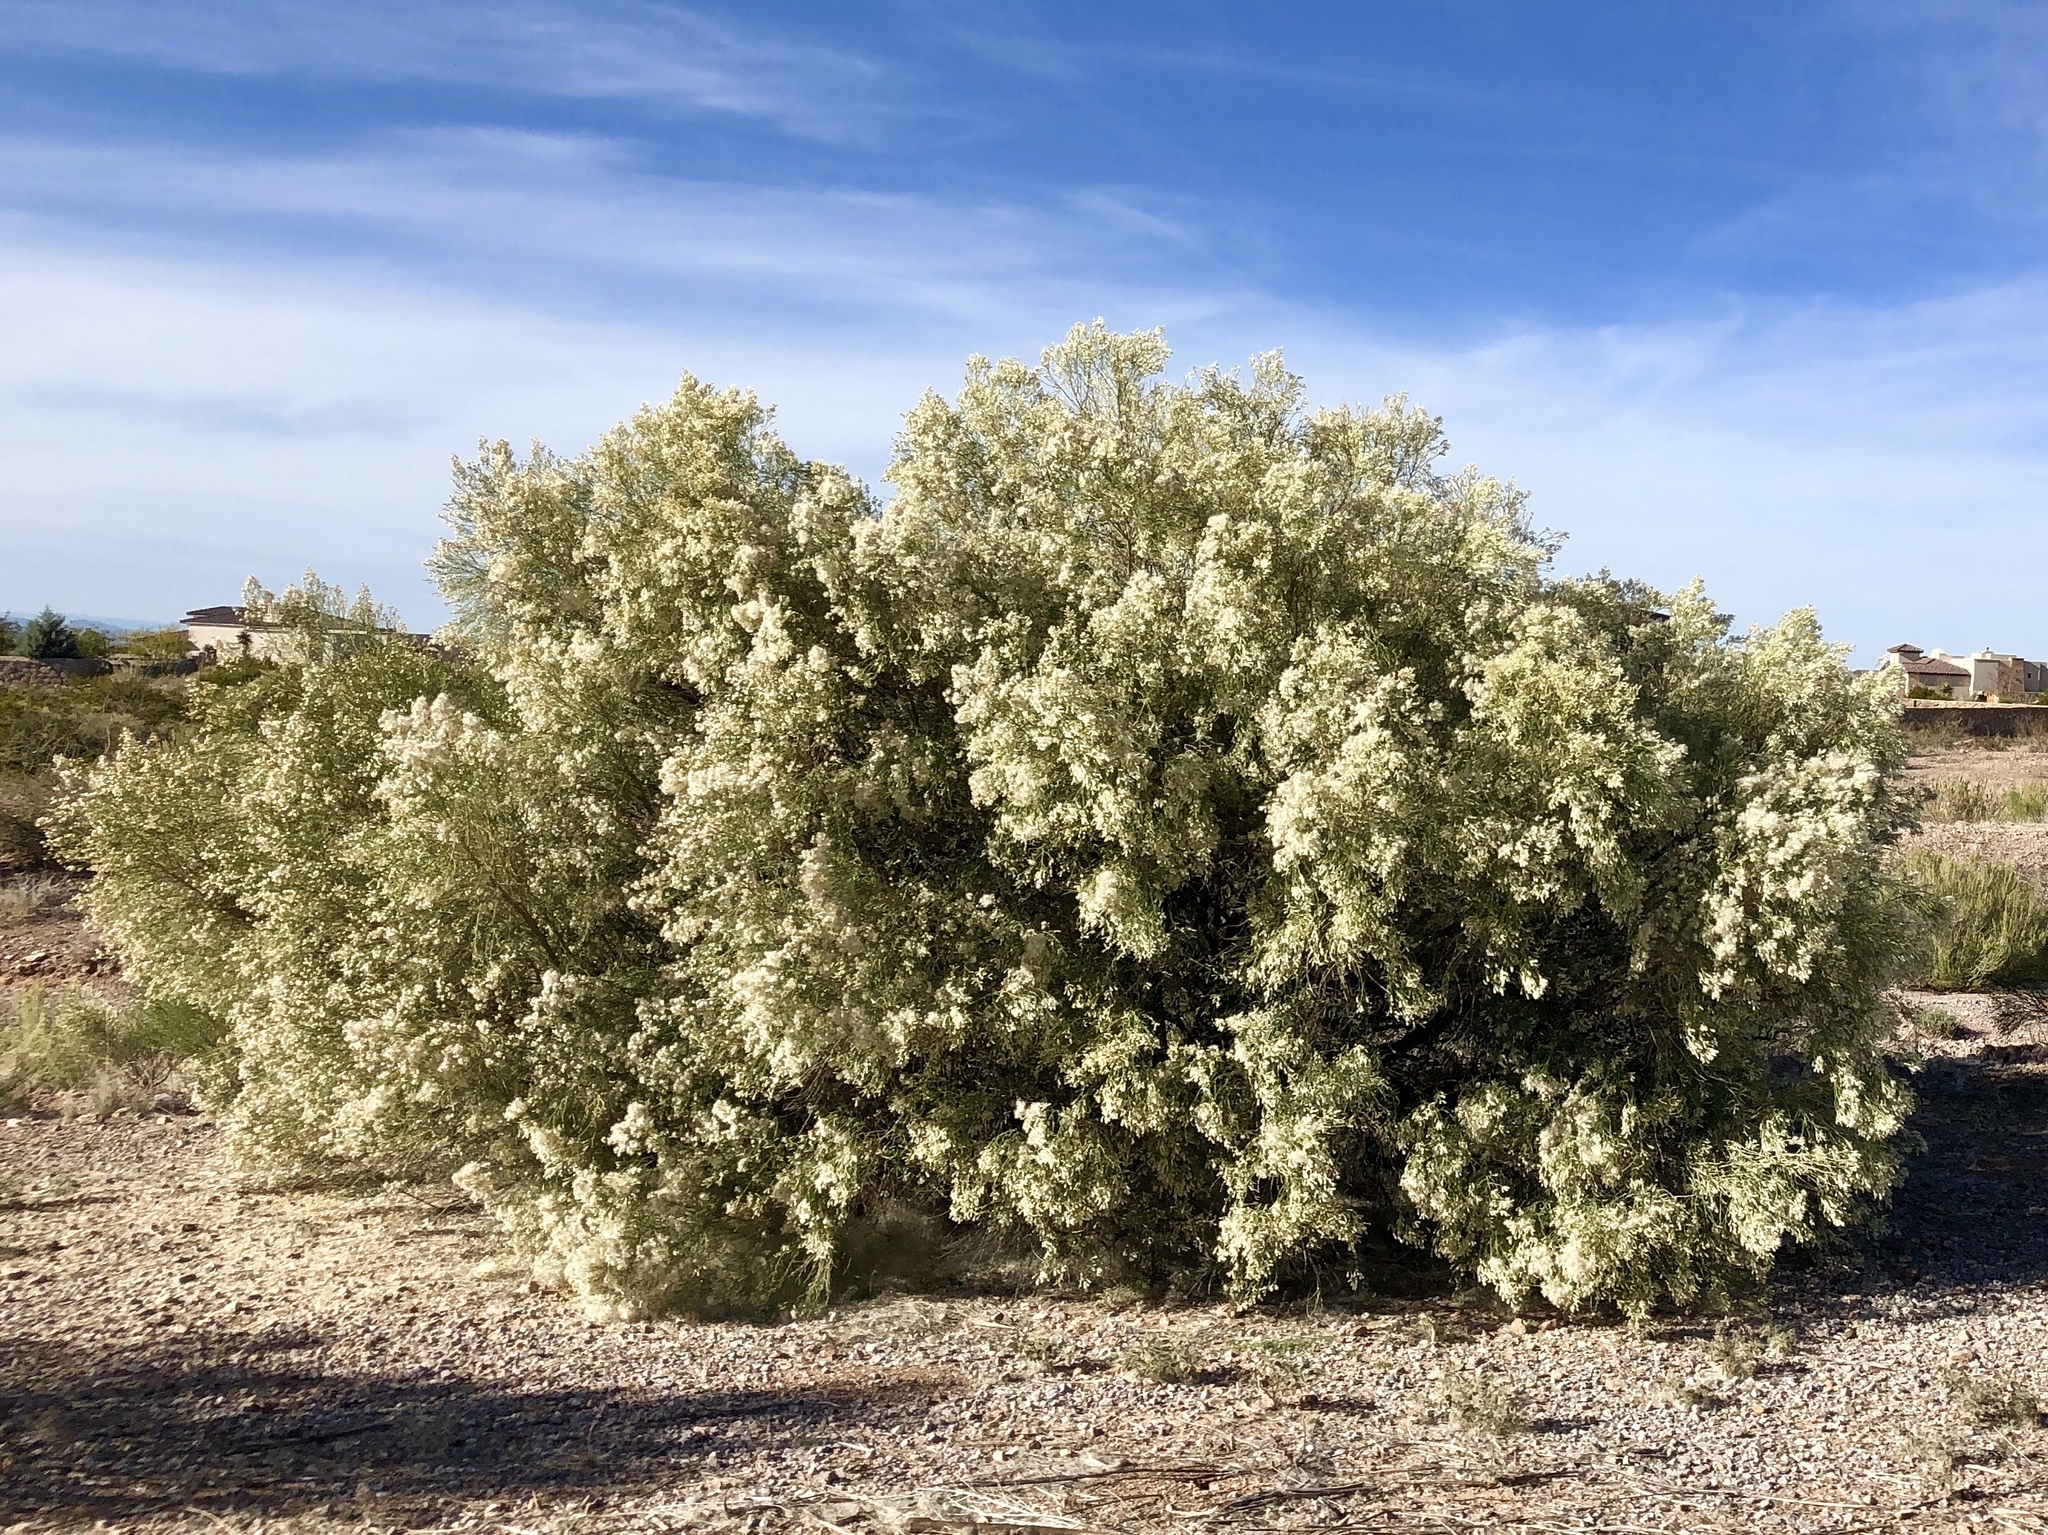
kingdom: Plantae
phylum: Tracheophyta
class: Magnoliopsida
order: Asterales
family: Asteraceae
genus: Baccharis
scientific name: Baccharis sarothroides
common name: Desert-broom
